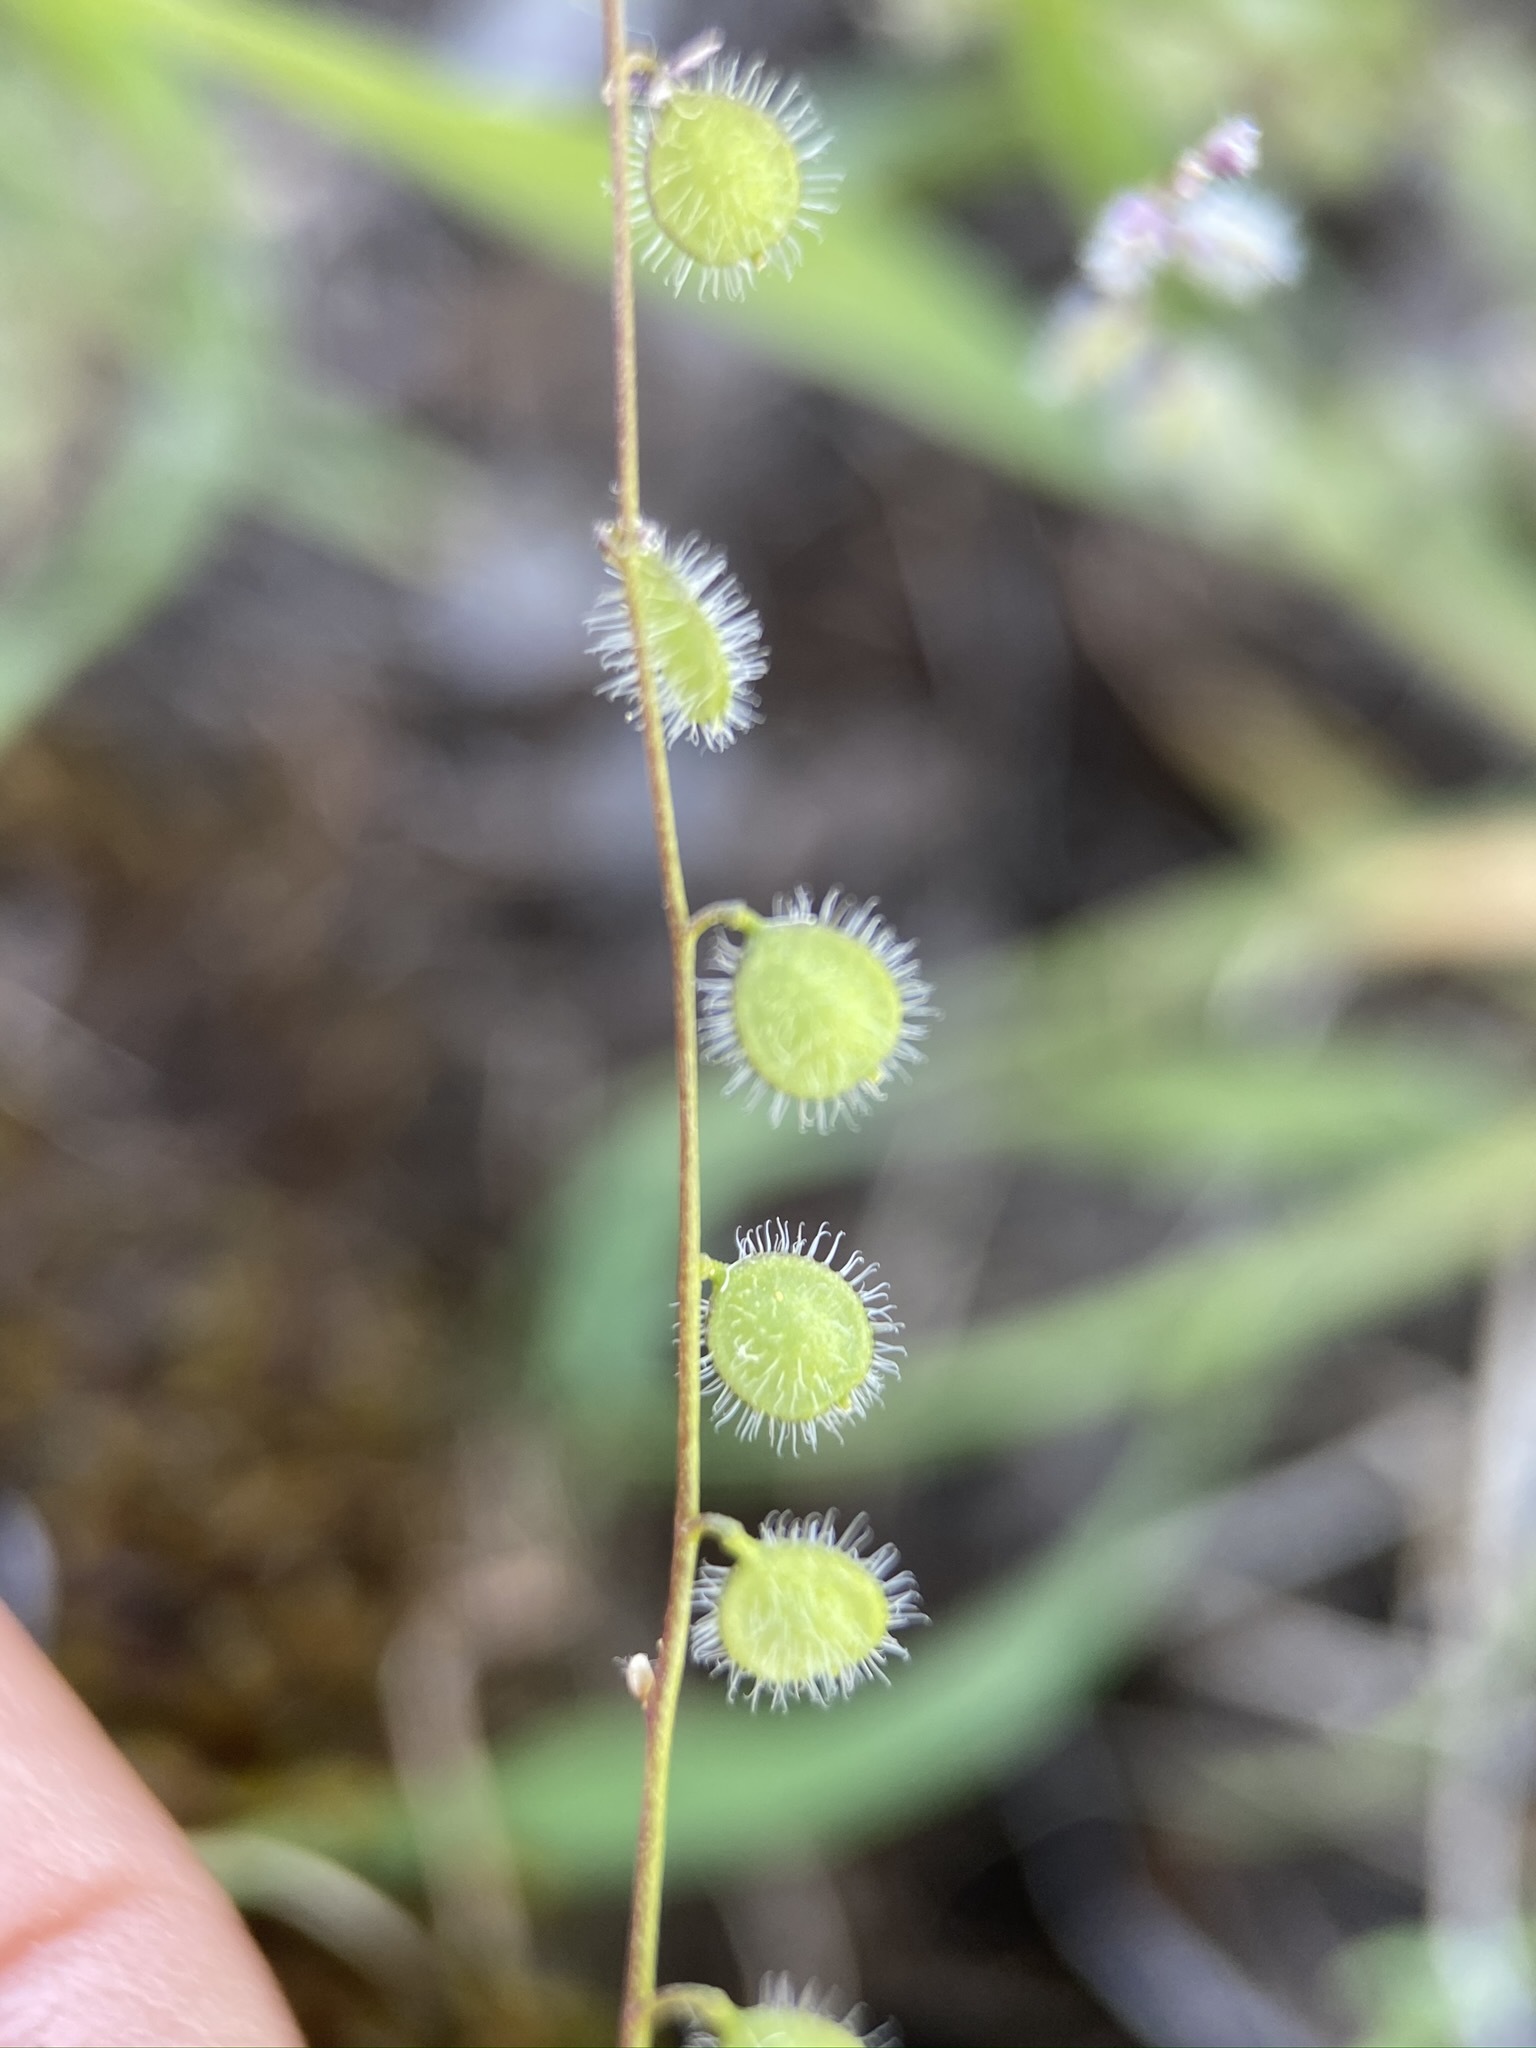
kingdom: Plantae
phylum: Tracheophyta
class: Magnoliopsida
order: Brassicales
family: Brassicaceae
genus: Athysanus
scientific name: Athysanus pusillus
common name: Common sandweed
